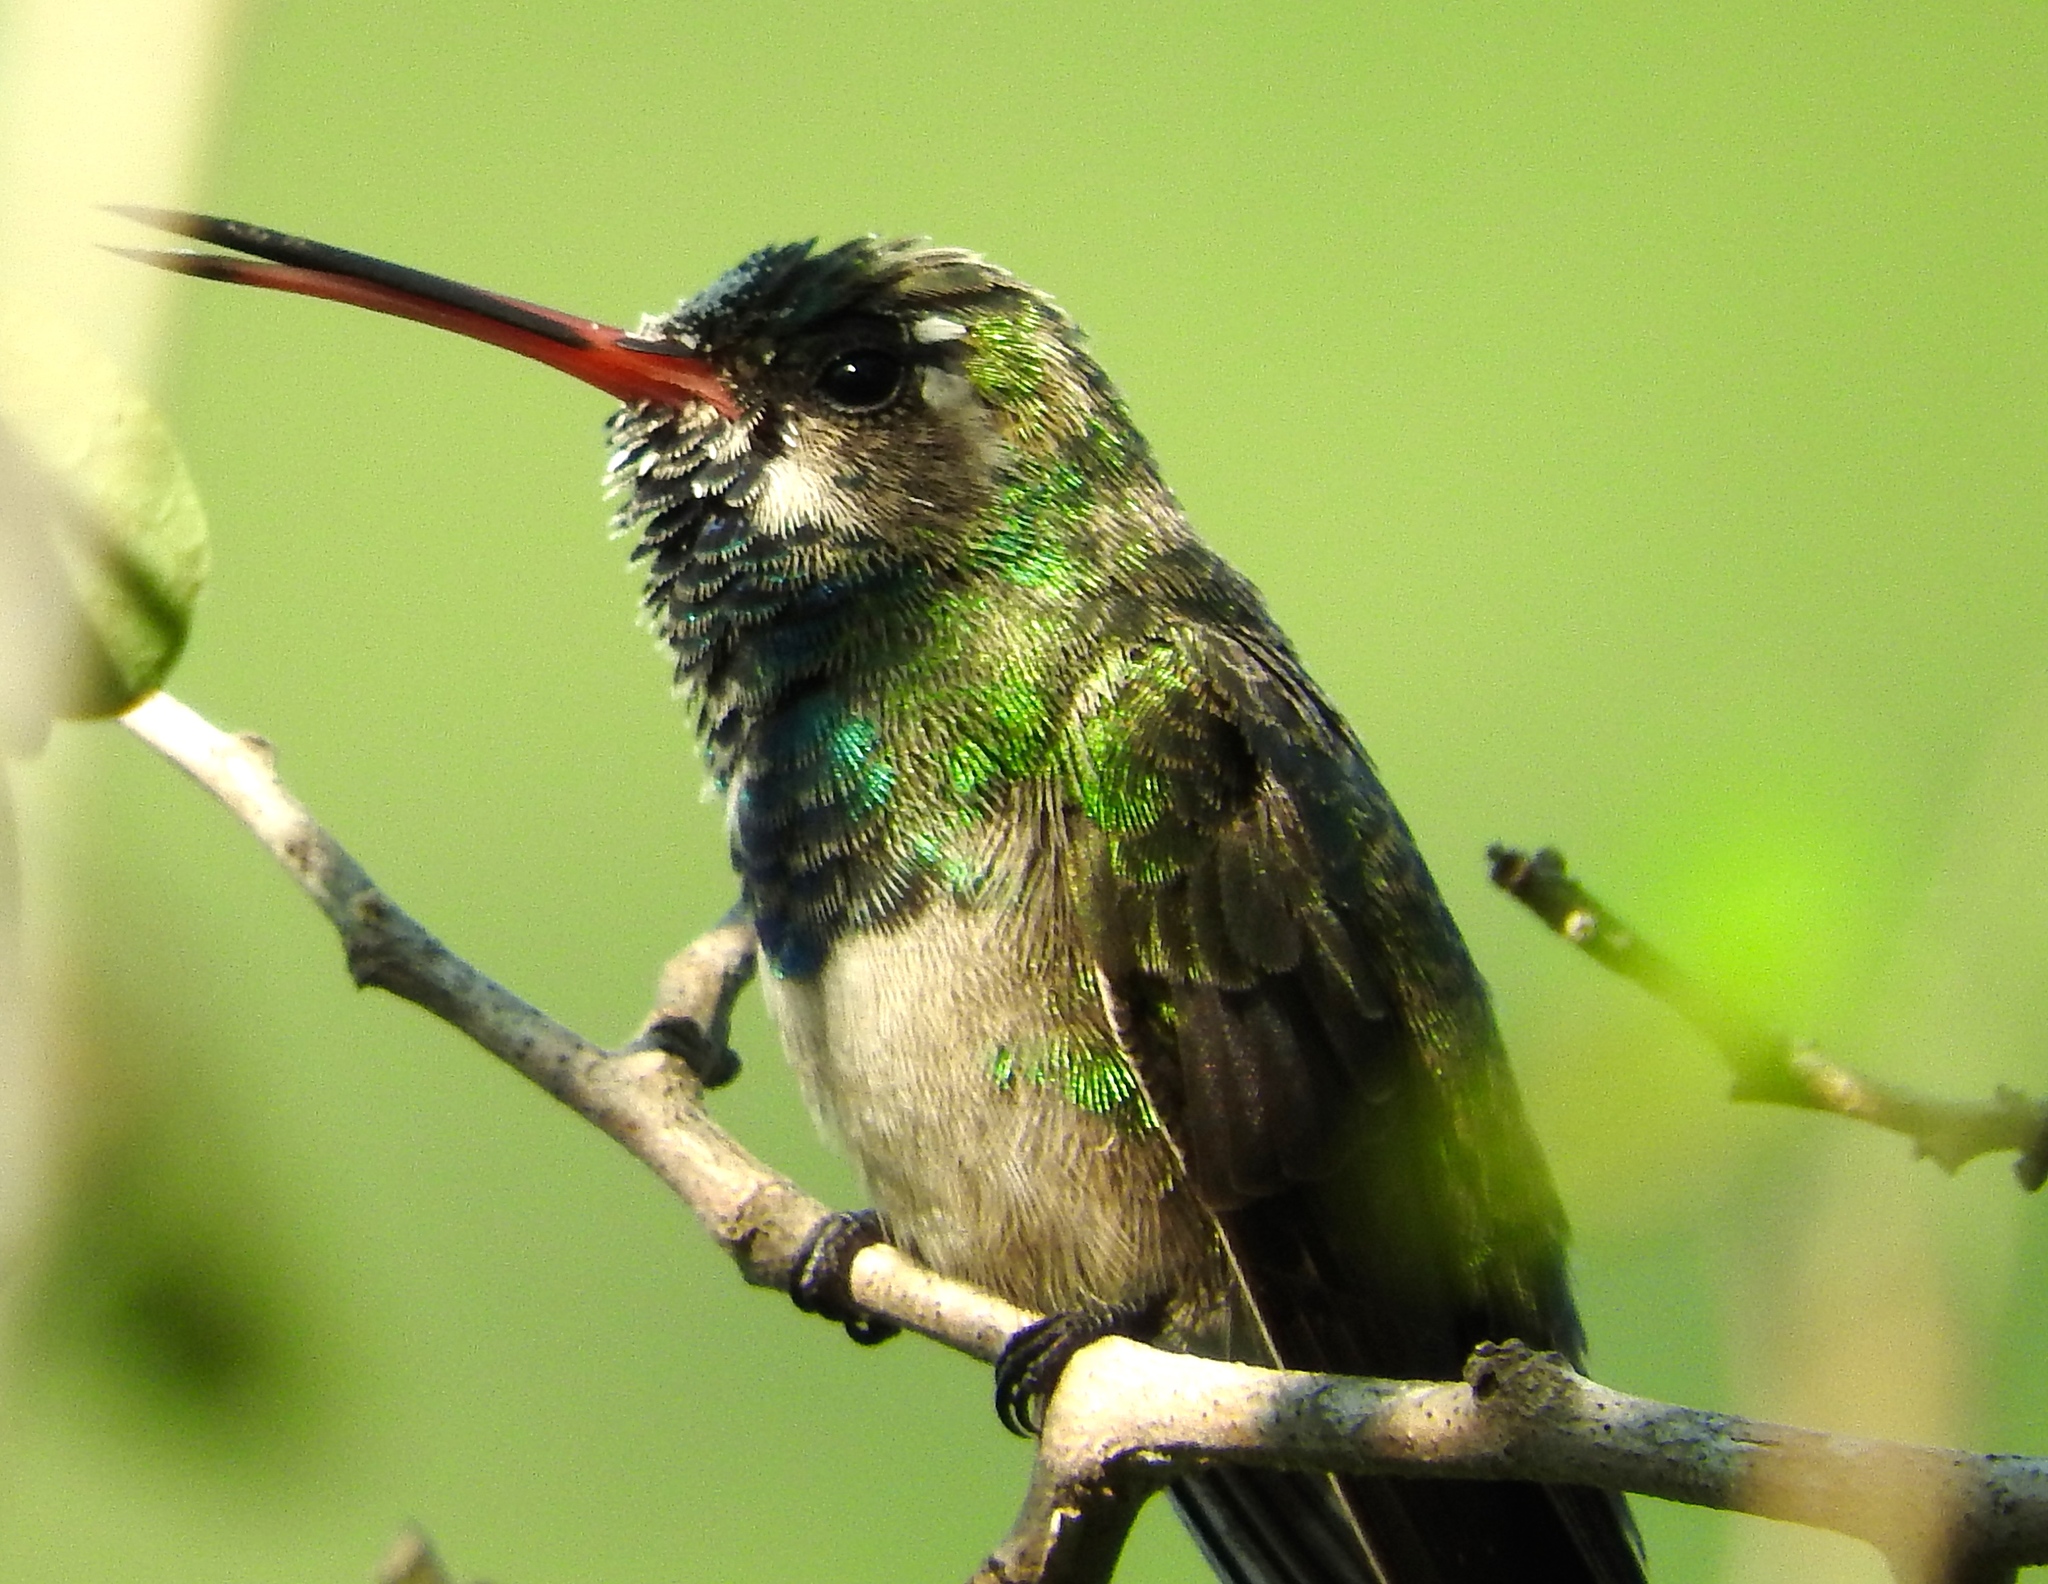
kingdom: Animalia
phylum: Chordata
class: Aves
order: Apodiformes
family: Trochilidae
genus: Cynanthus
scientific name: Cynanthus latirostris
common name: Broad-billed hummingbird
